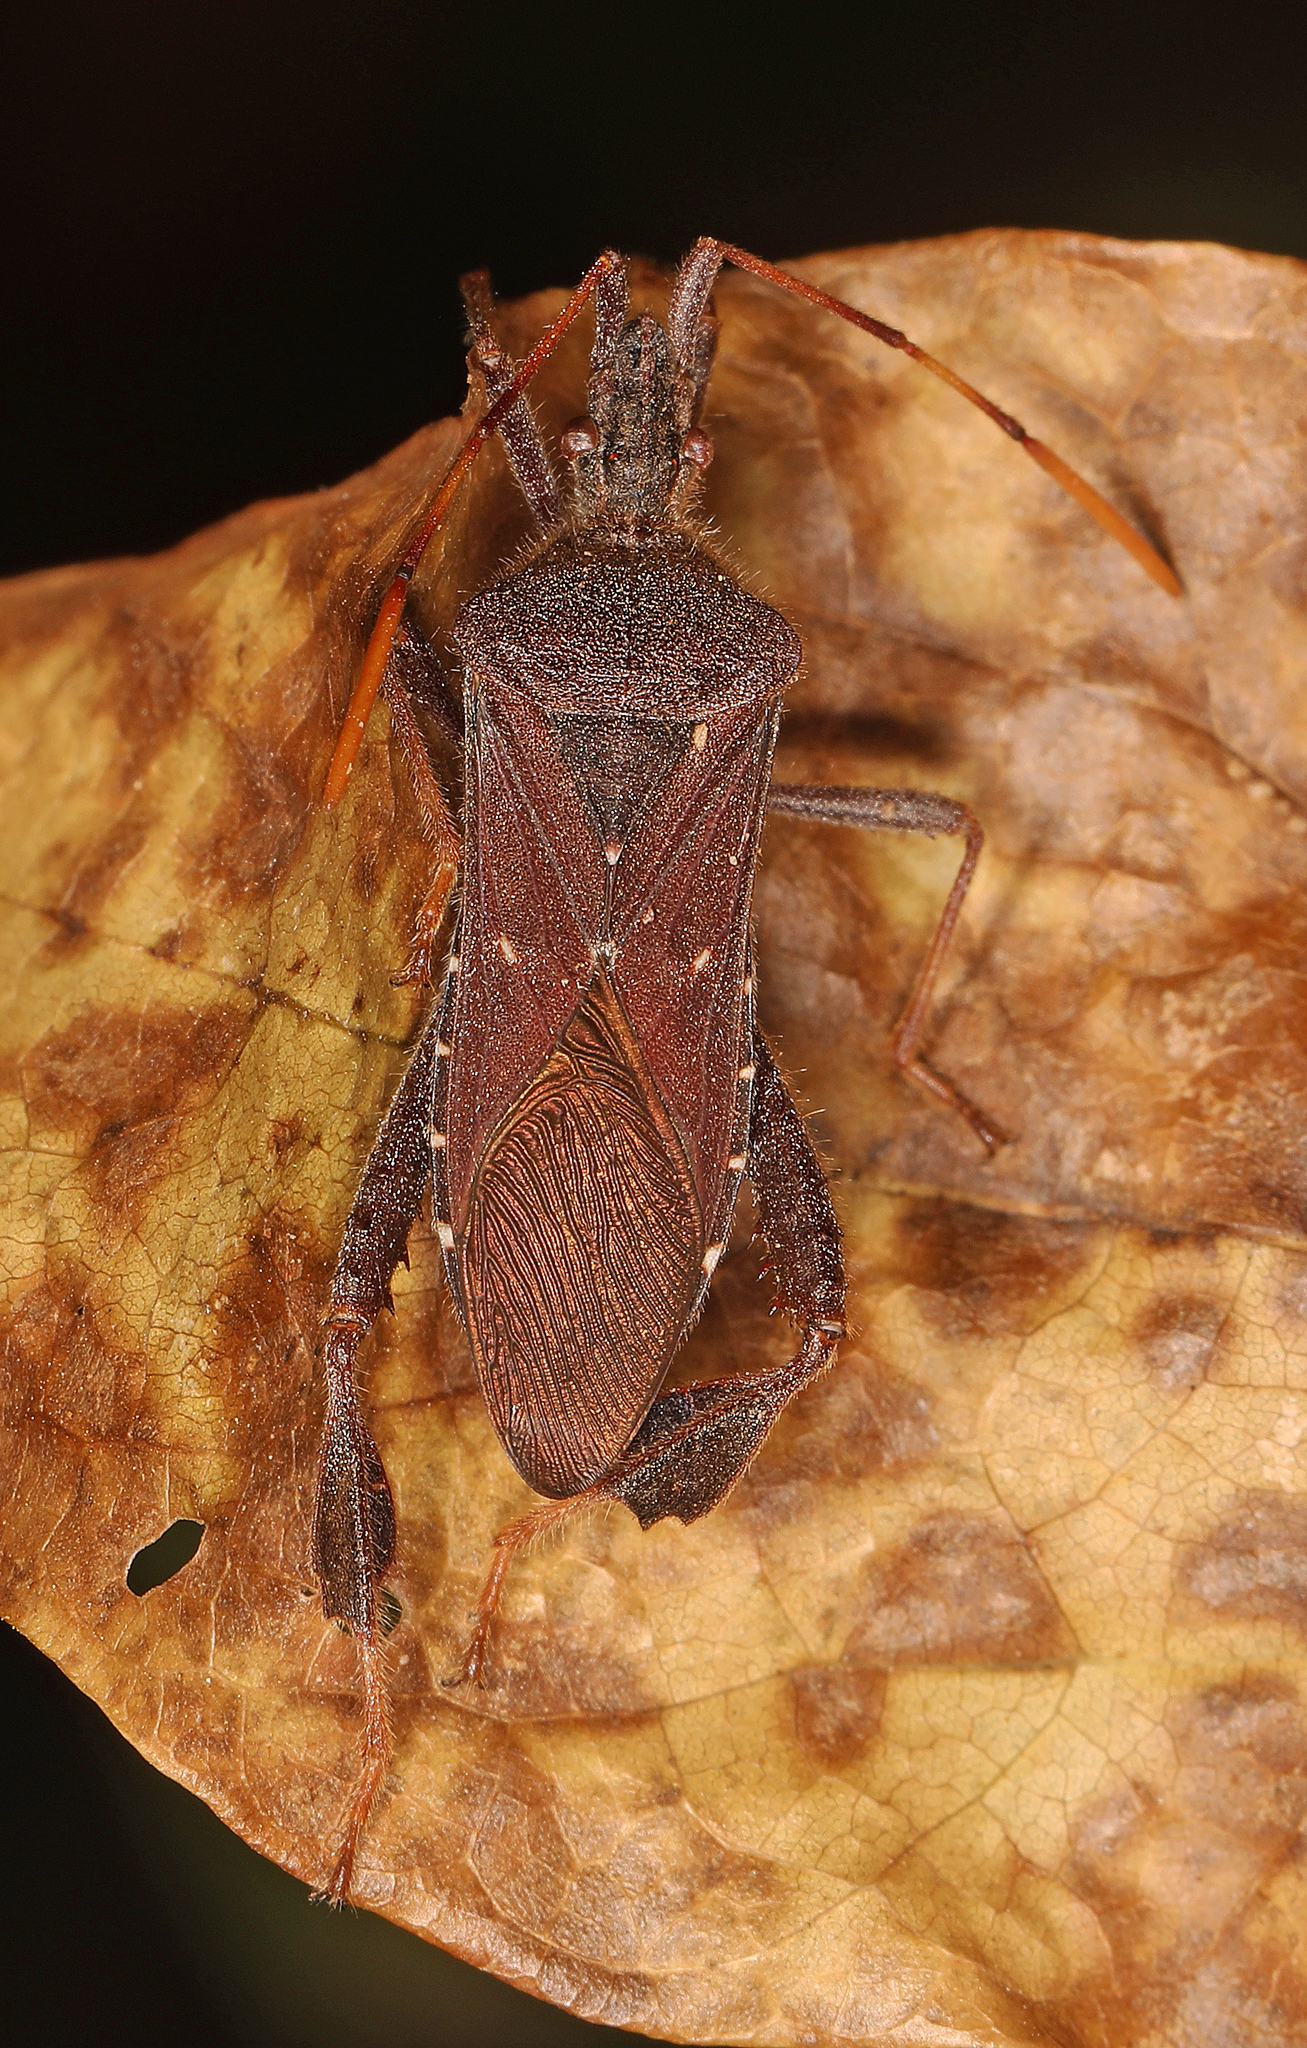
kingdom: Animalia
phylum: Arthropoda
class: Insecta
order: Hemiptera
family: Coreidae
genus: Leptoglossus
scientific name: Leptoglossus oppositus
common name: Northern leaf-footed bug
